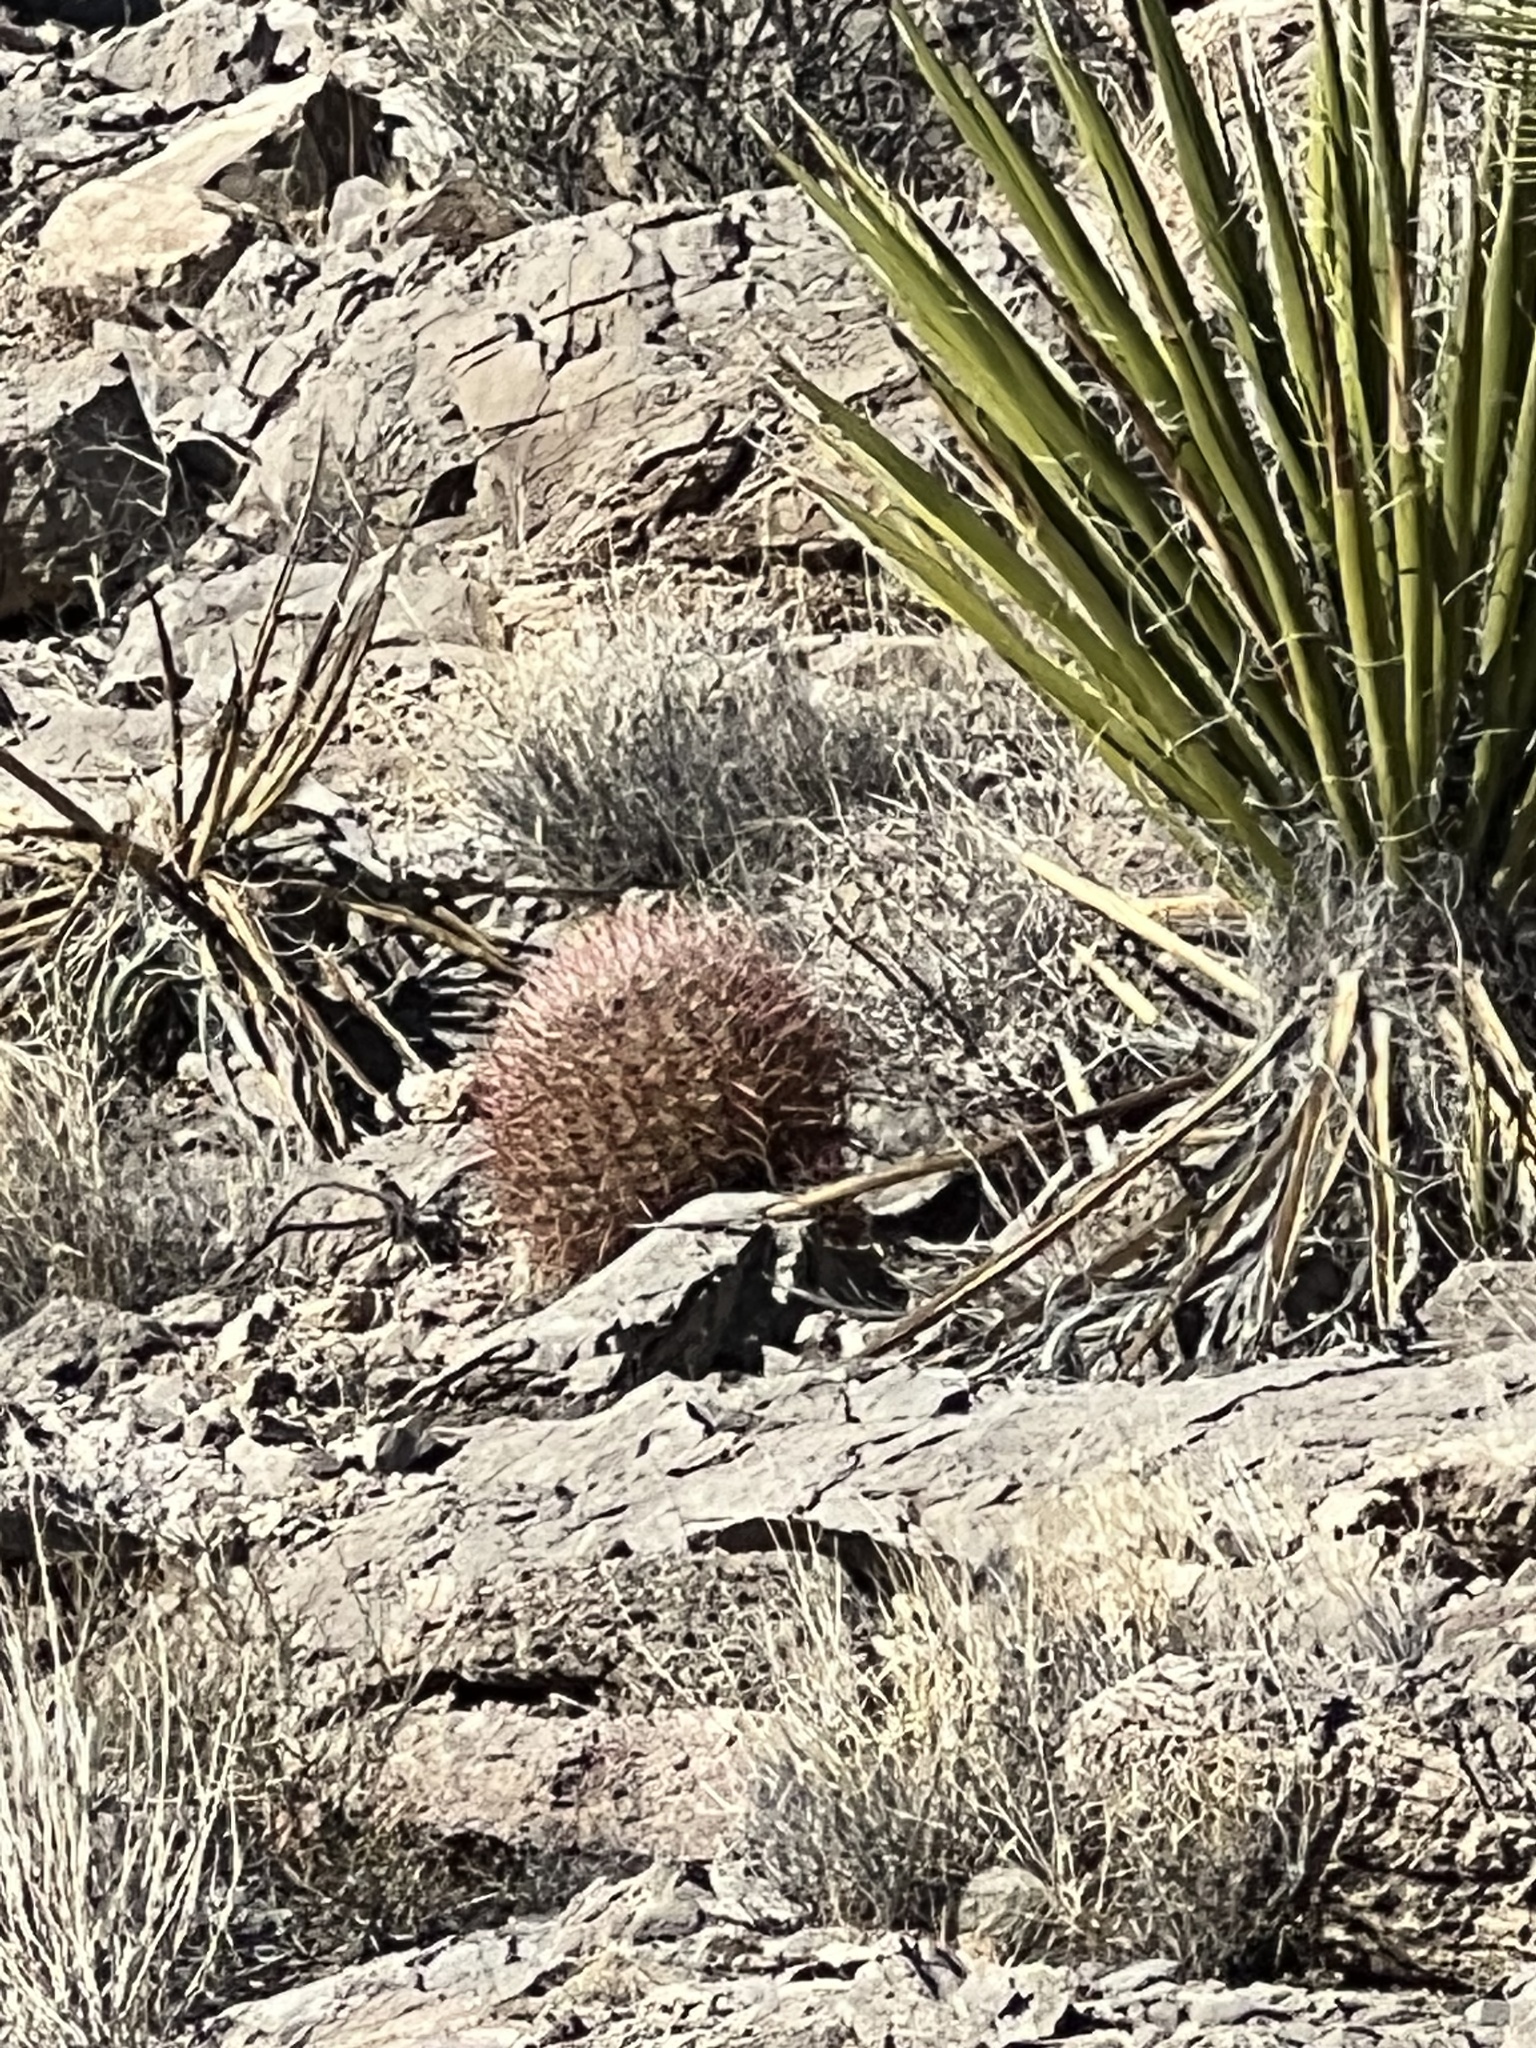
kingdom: Plantae
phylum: Tracheophyta
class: Magnoliopsida
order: Caryophyllales
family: Cactaceae
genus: Ferocactus
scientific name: Ferocactus cylindraceus
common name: California barrel cactus
